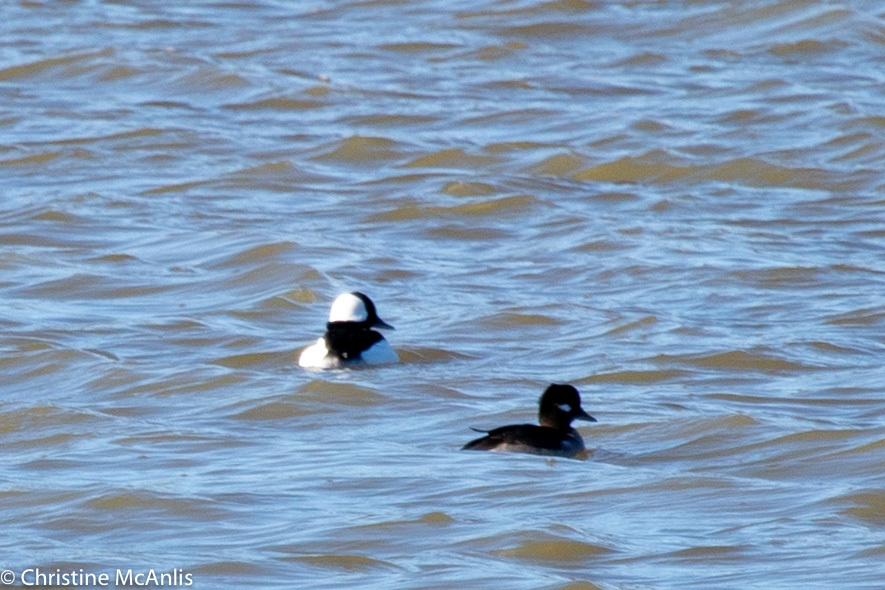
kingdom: Animalia
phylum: Chordata
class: Aves
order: Anseriformes
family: Anatidae
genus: Bucephala
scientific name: Bucephala albeola
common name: Bufflehead
